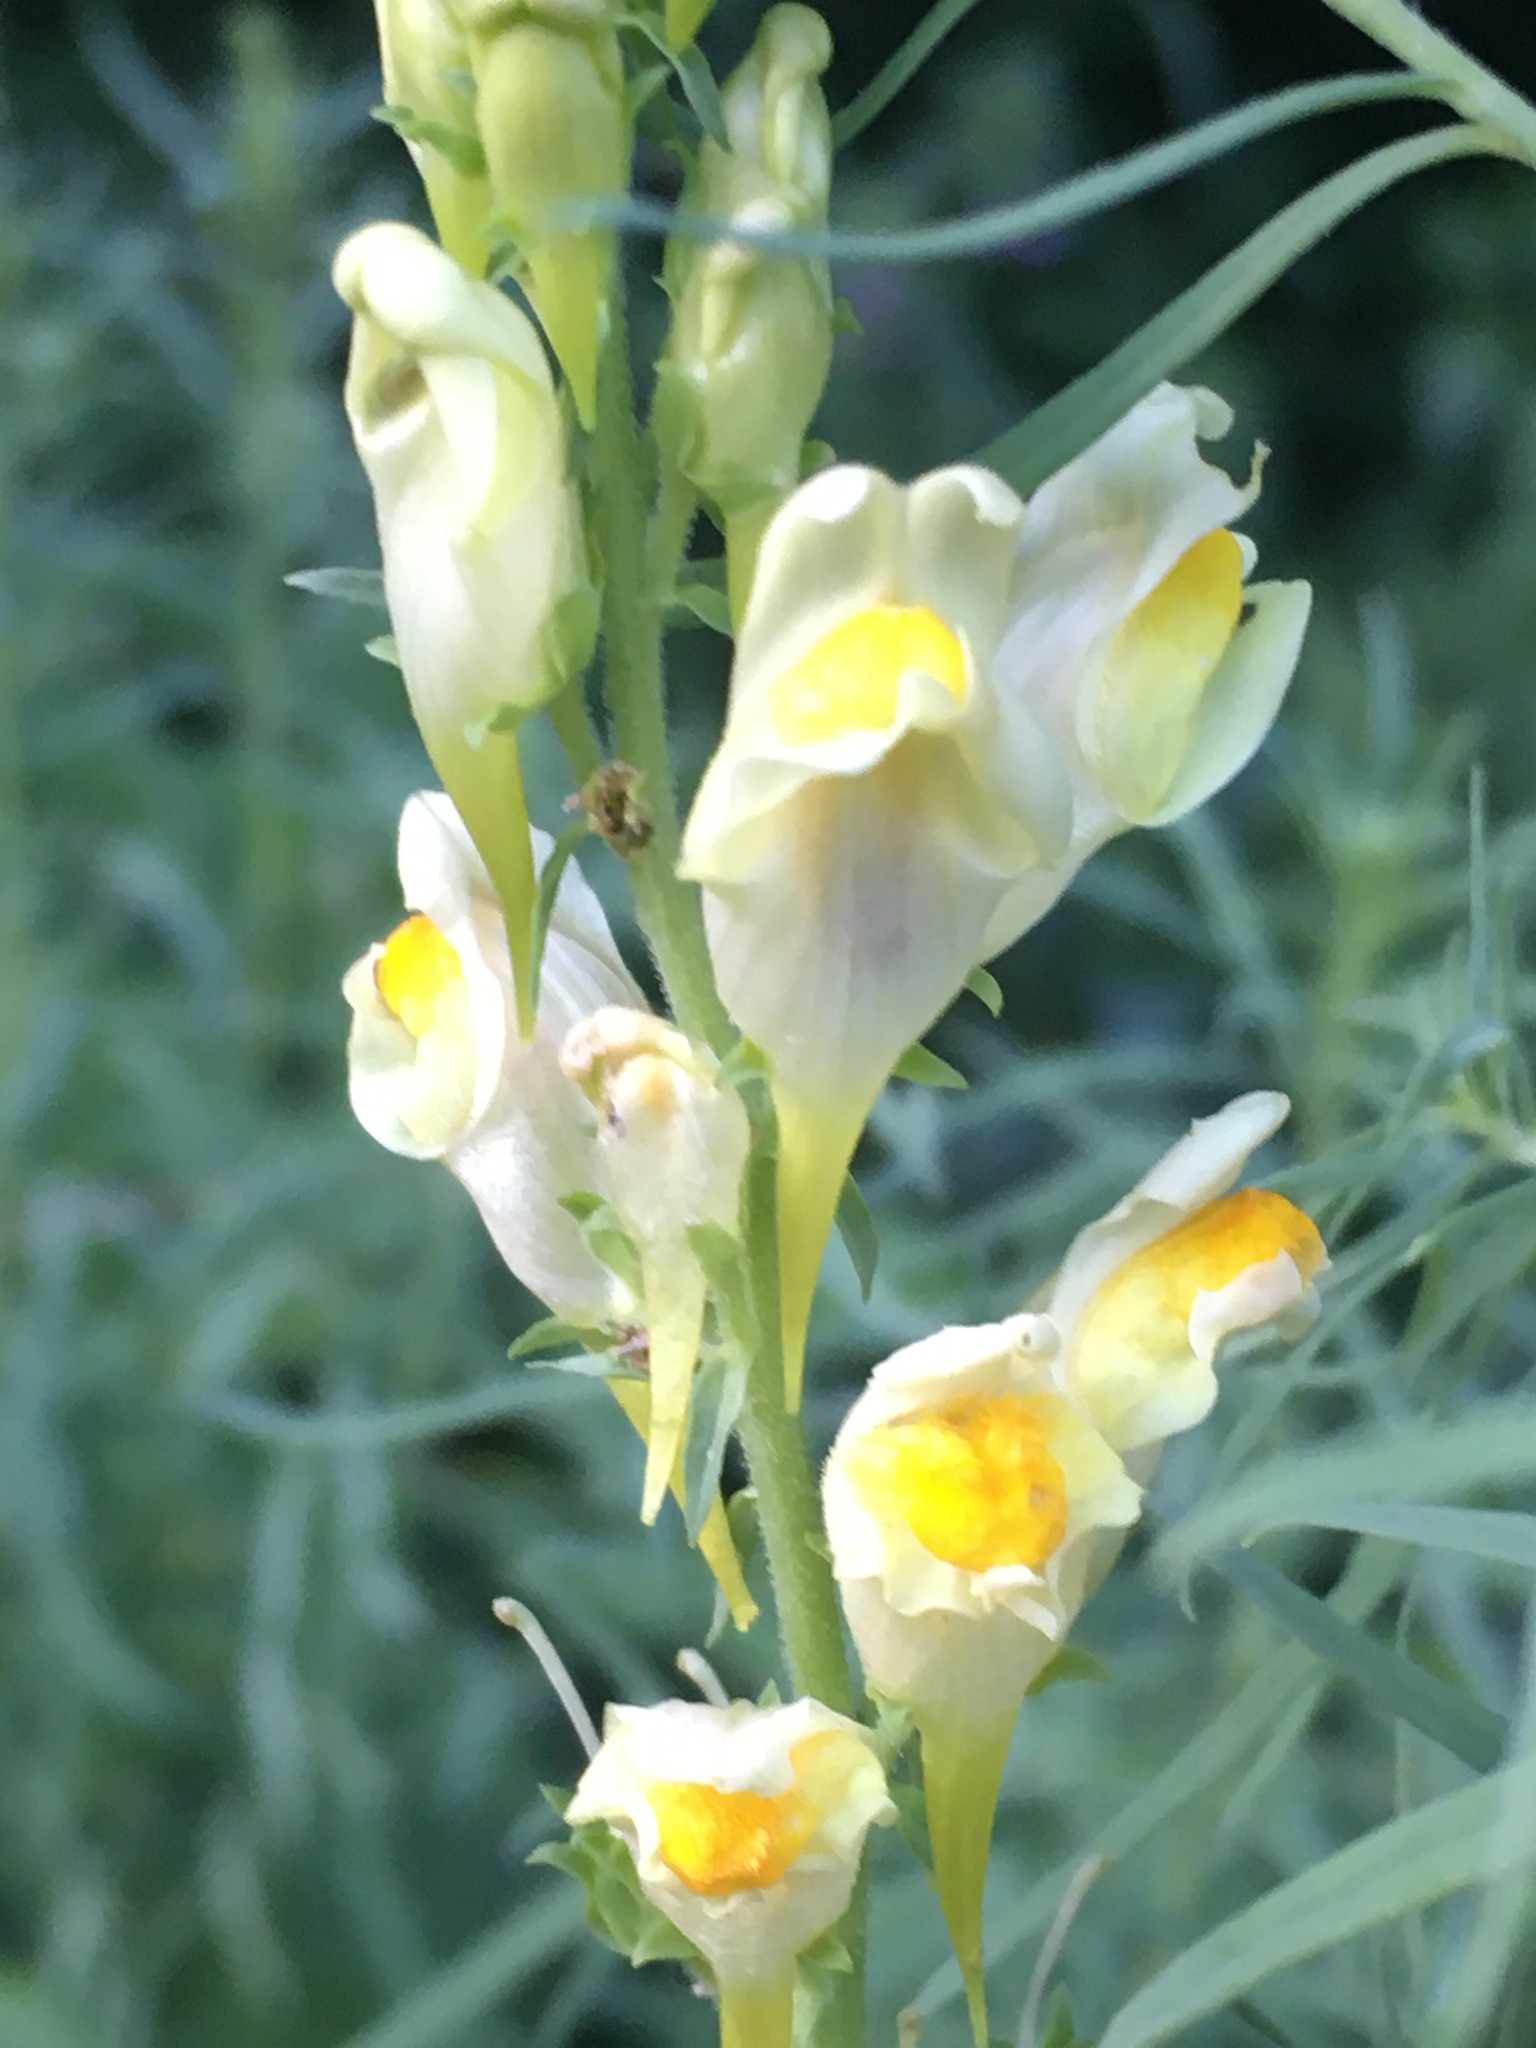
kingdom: Plantae
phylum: Tracheophyta
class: Magnoliopsida
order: Lamiales
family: Plantaginaceae
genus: Linaria
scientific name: Linaria vulgaris
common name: Butter and eggs
